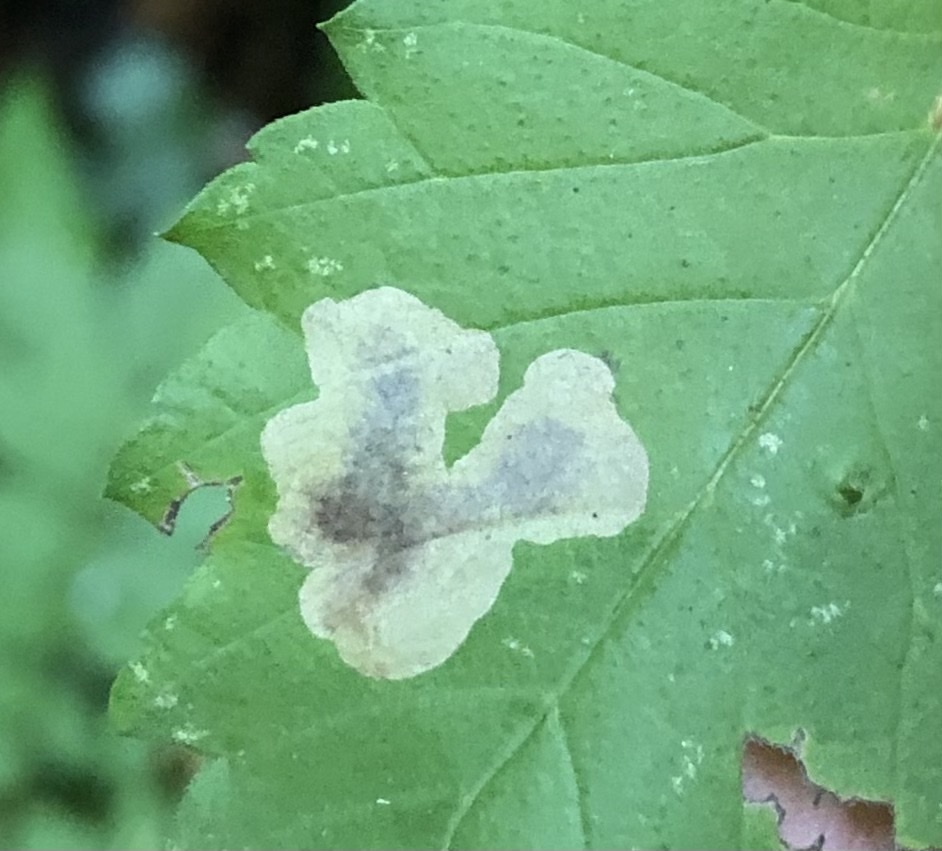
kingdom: Animalia
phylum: Arthropoda
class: Insecta
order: Lepidoptera
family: Gracillariidae
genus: Cameraria
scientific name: Cameraria ulmella
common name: Elm leafminer
